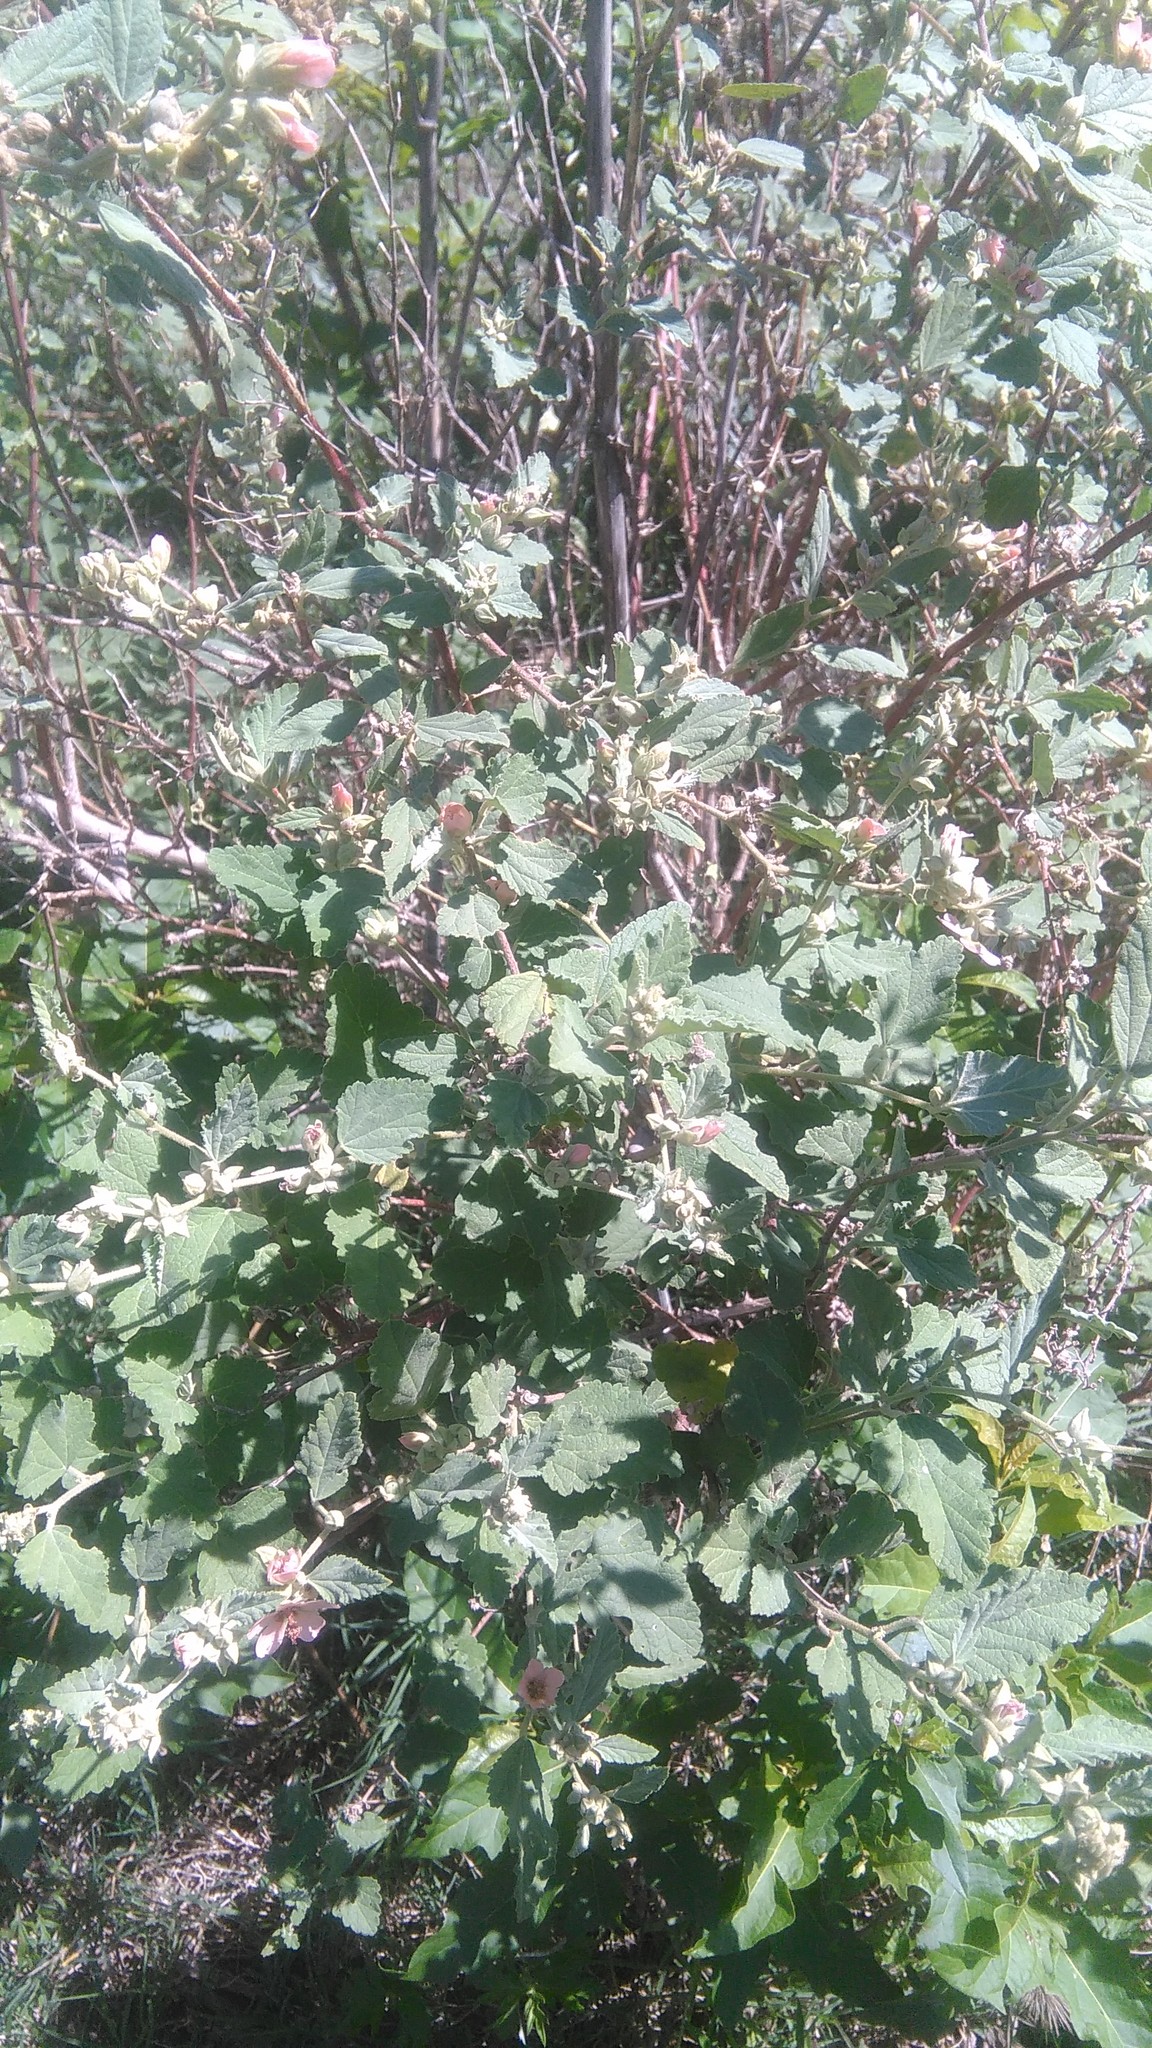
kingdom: Plantae
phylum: Tracheophyta
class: Magnoliopsida
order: Malvales
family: Malvaceae
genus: Sphaeralcea
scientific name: Sphaeralcea bonariensis
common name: Latin globemallow
